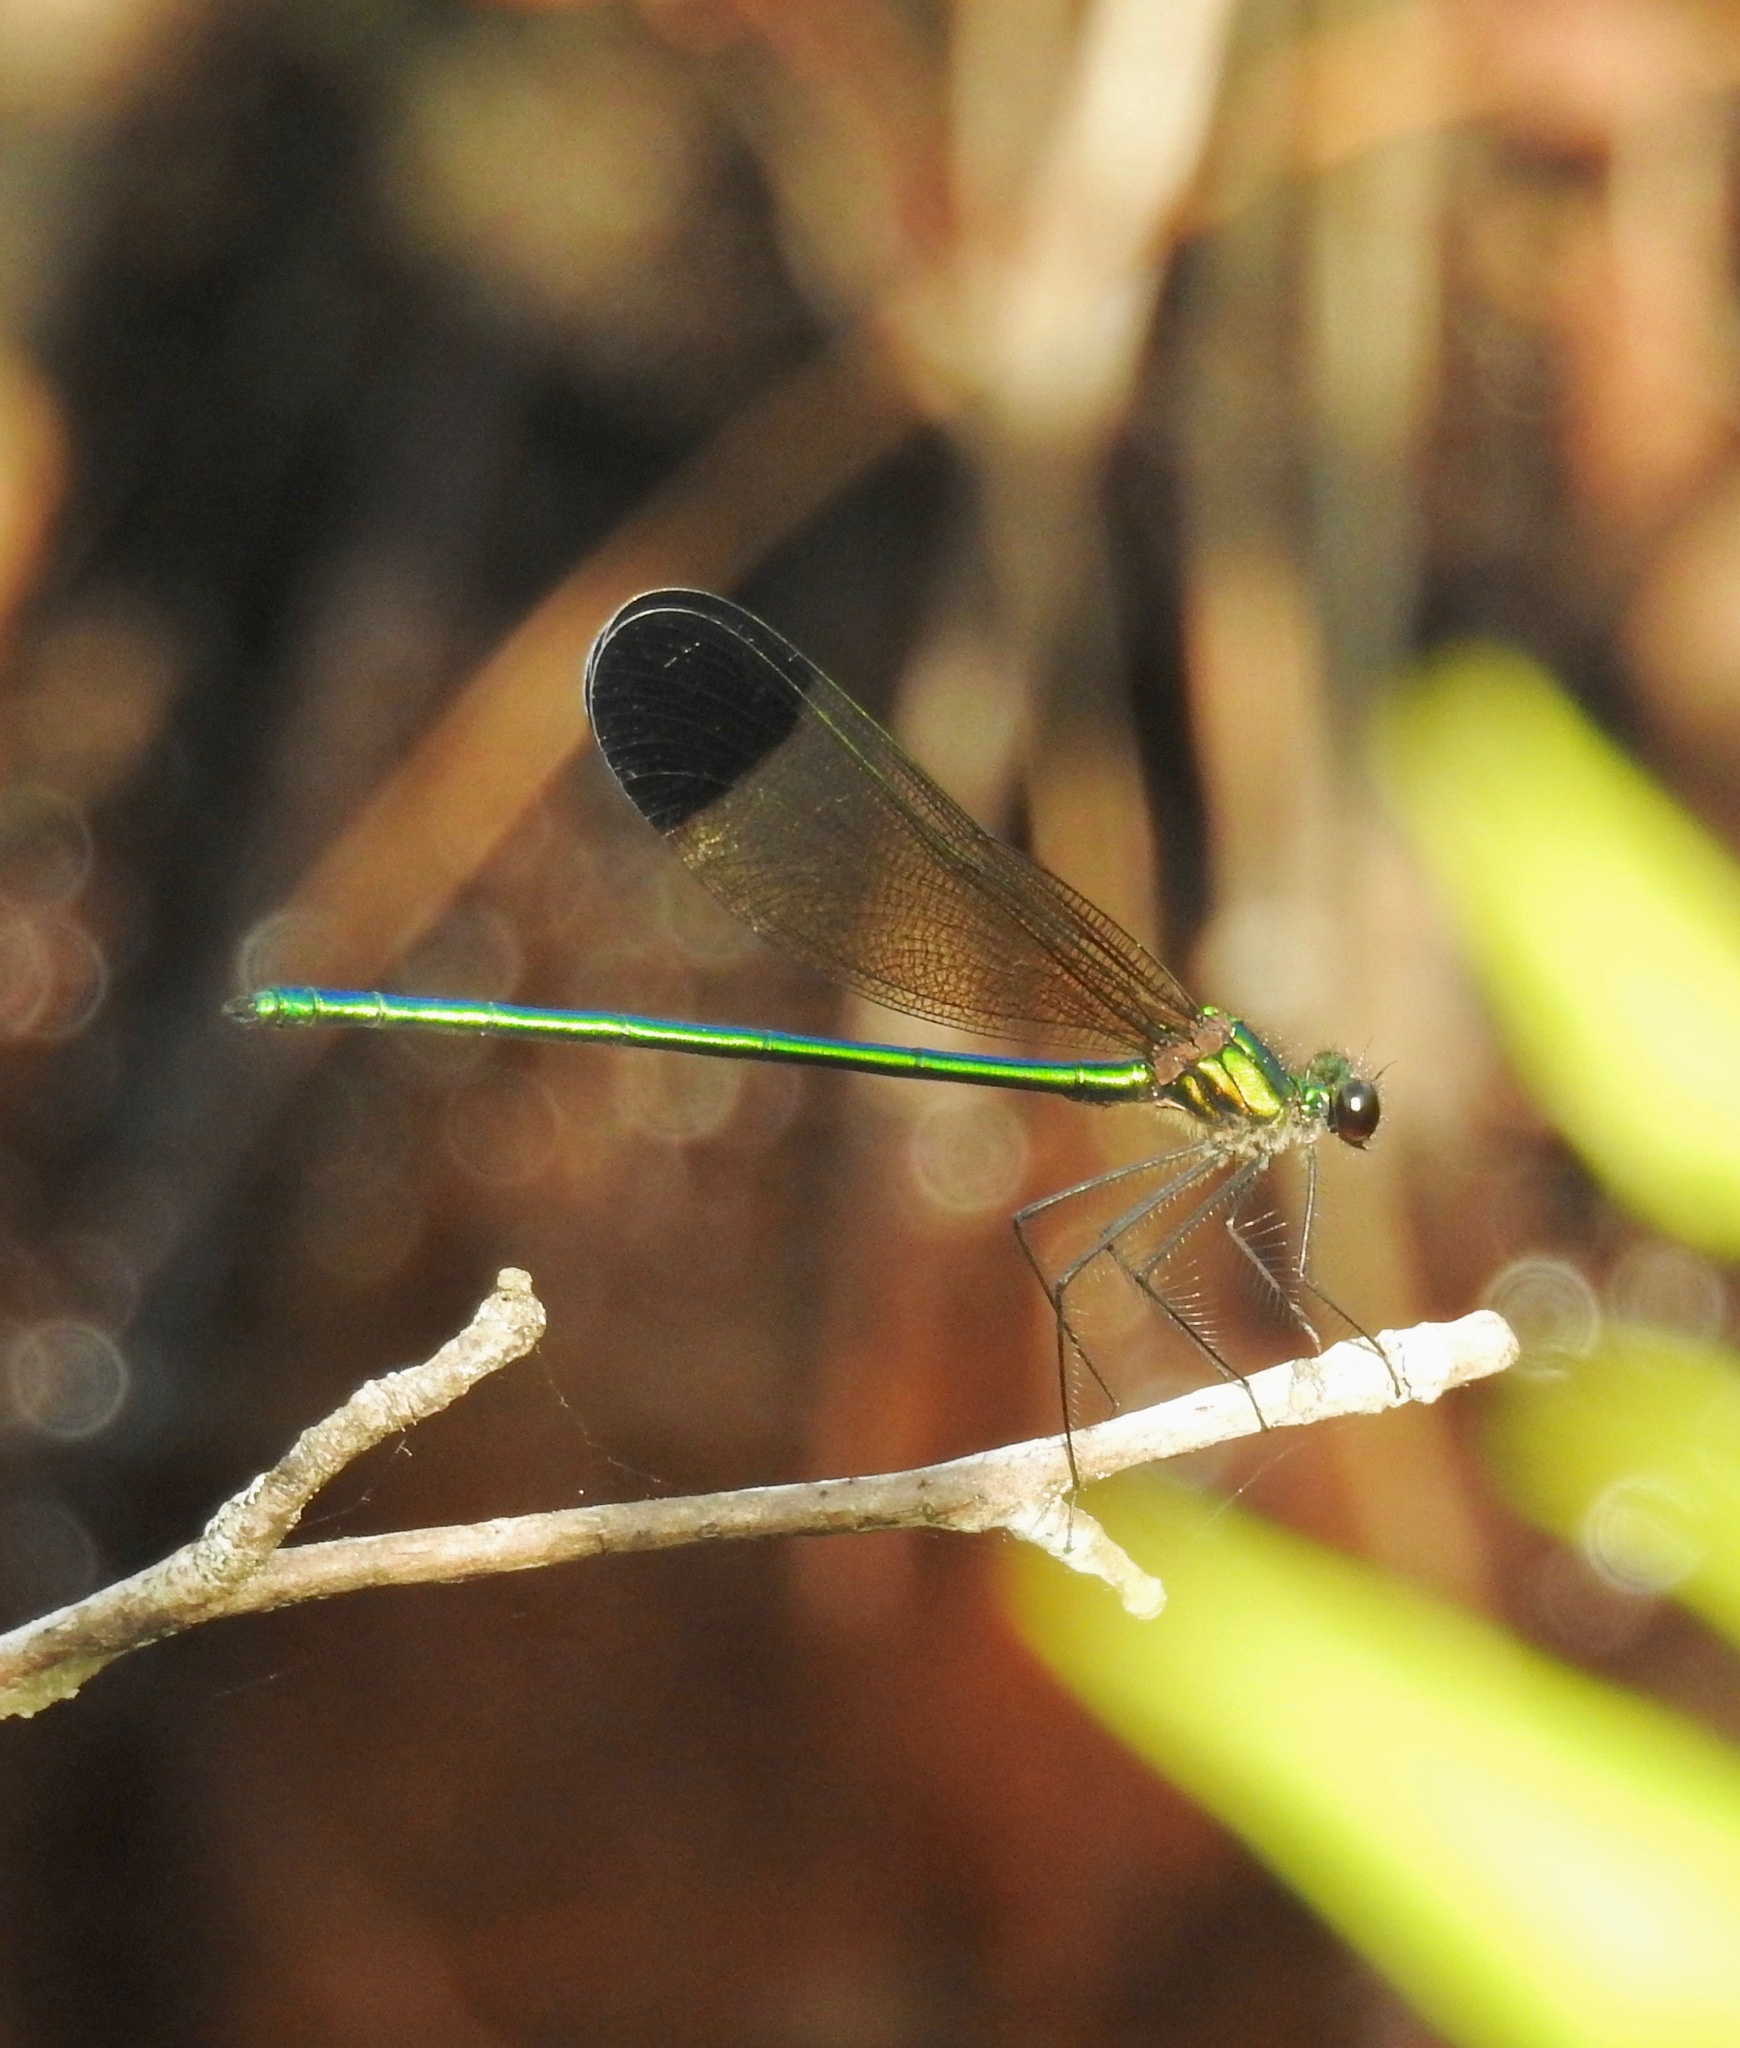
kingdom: Animalia
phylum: Arthropoda
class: Insecta
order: Odonata
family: Calopterygidae
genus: Calopteryx
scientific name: Calopteryx dimidiata
